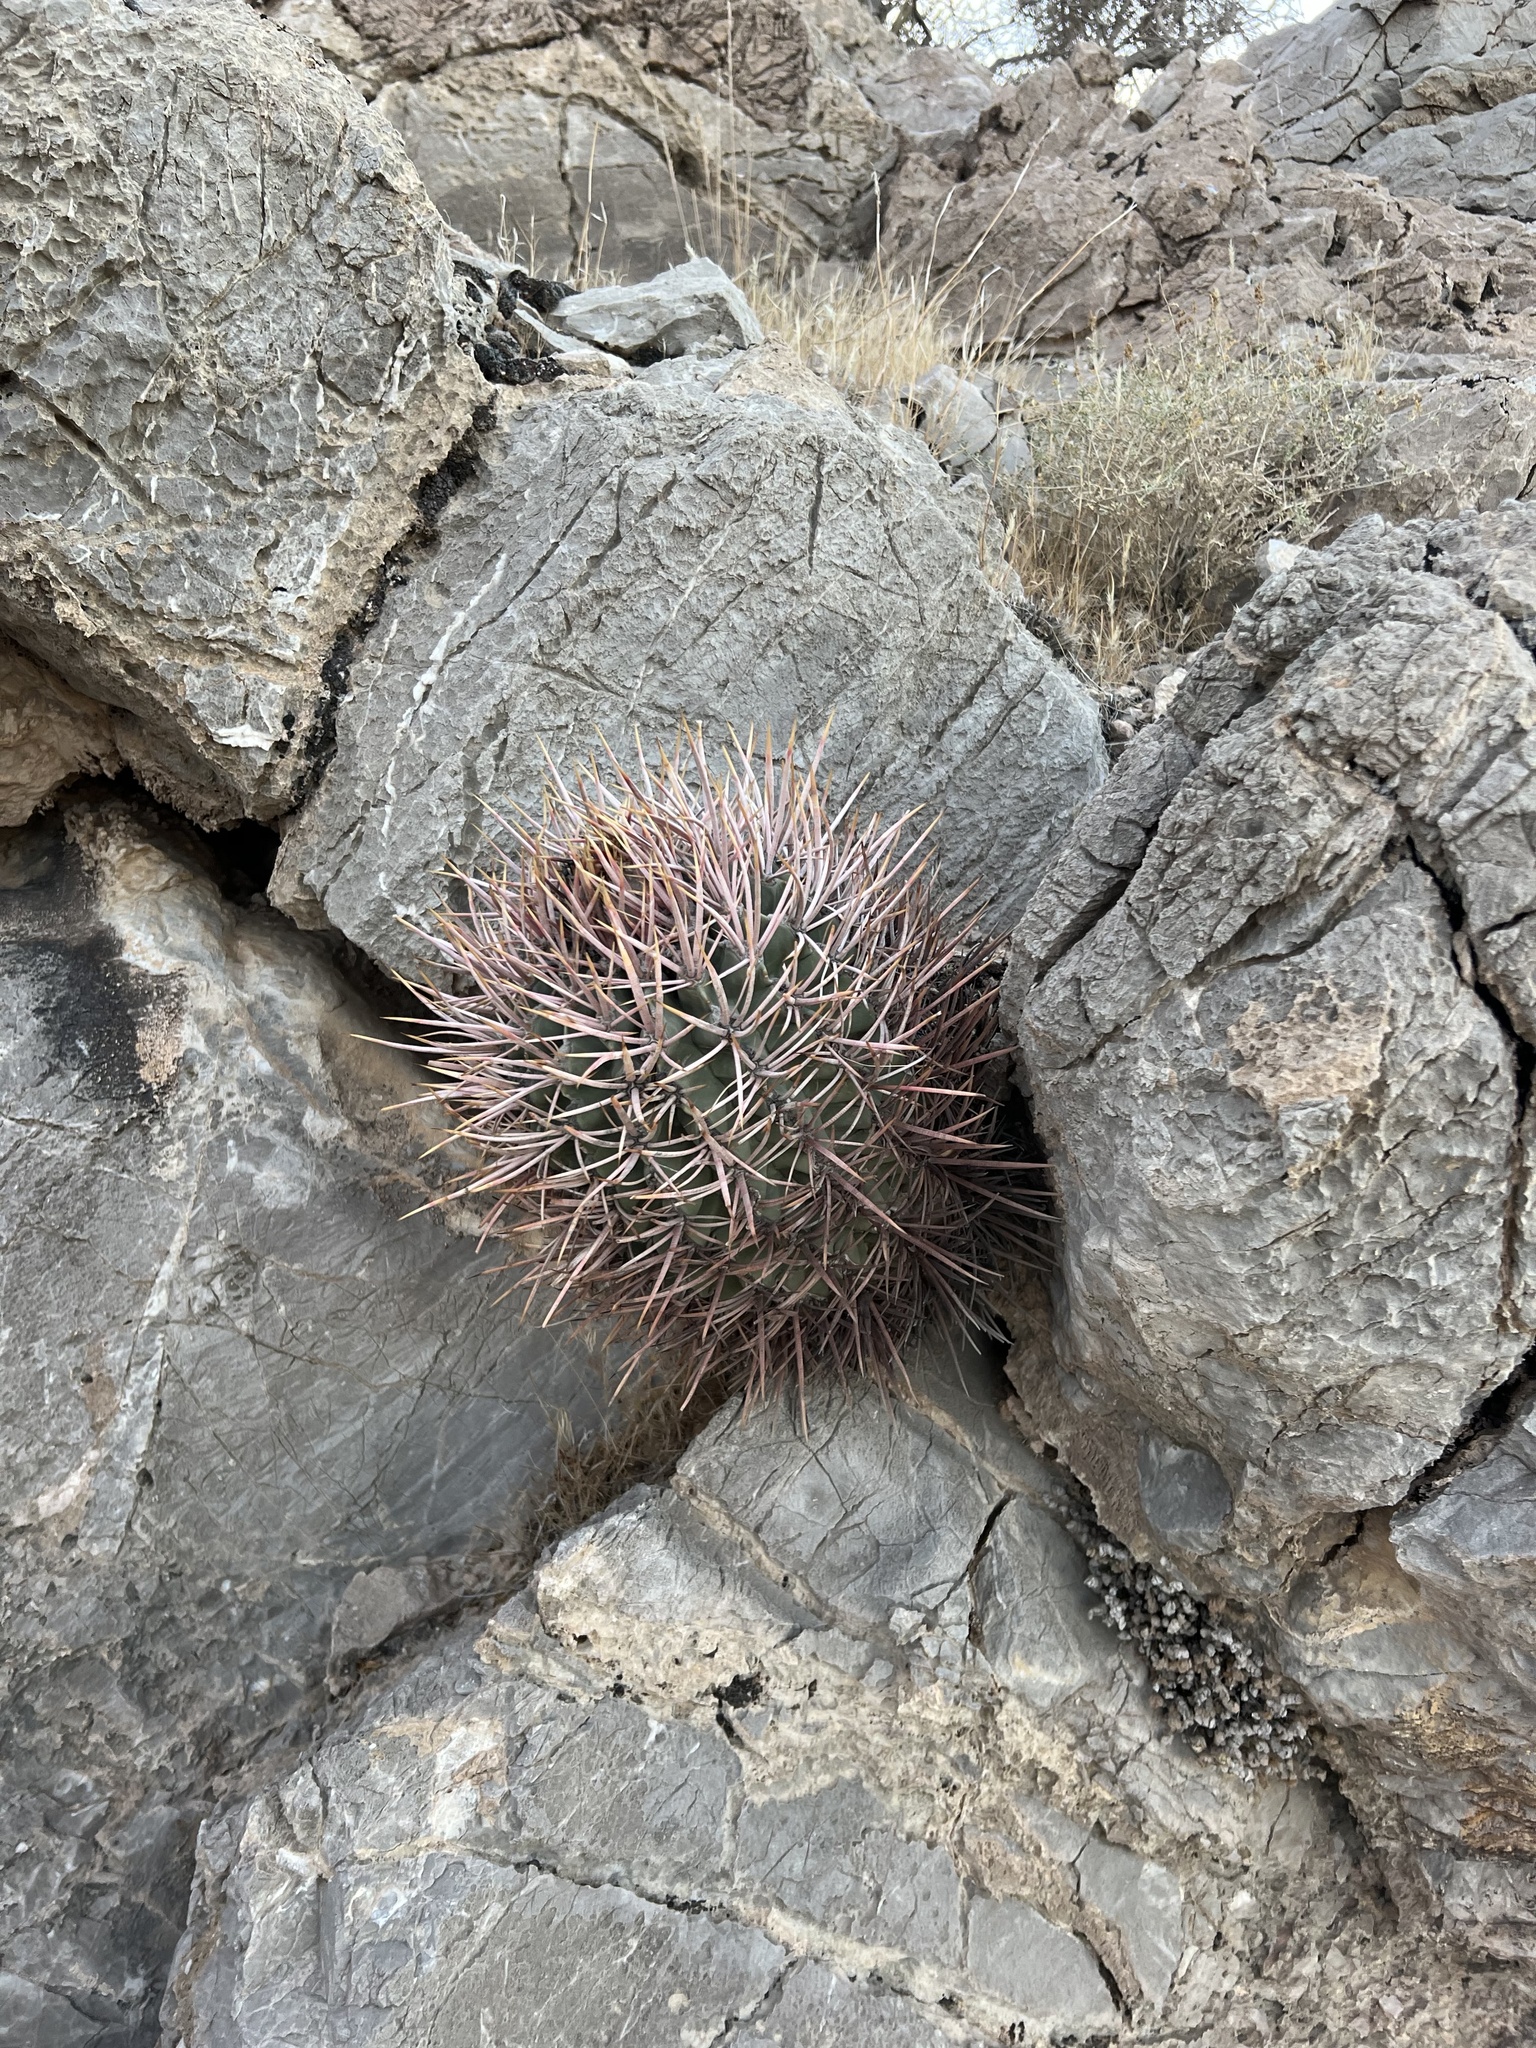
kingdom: Plantae
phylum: Tracheophyta
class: Magnoliopsida
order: Caryophyllales
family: Cactaceae
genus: Echinocactus
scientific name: Echinocactus polycephalus
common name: Cottontop cactus
